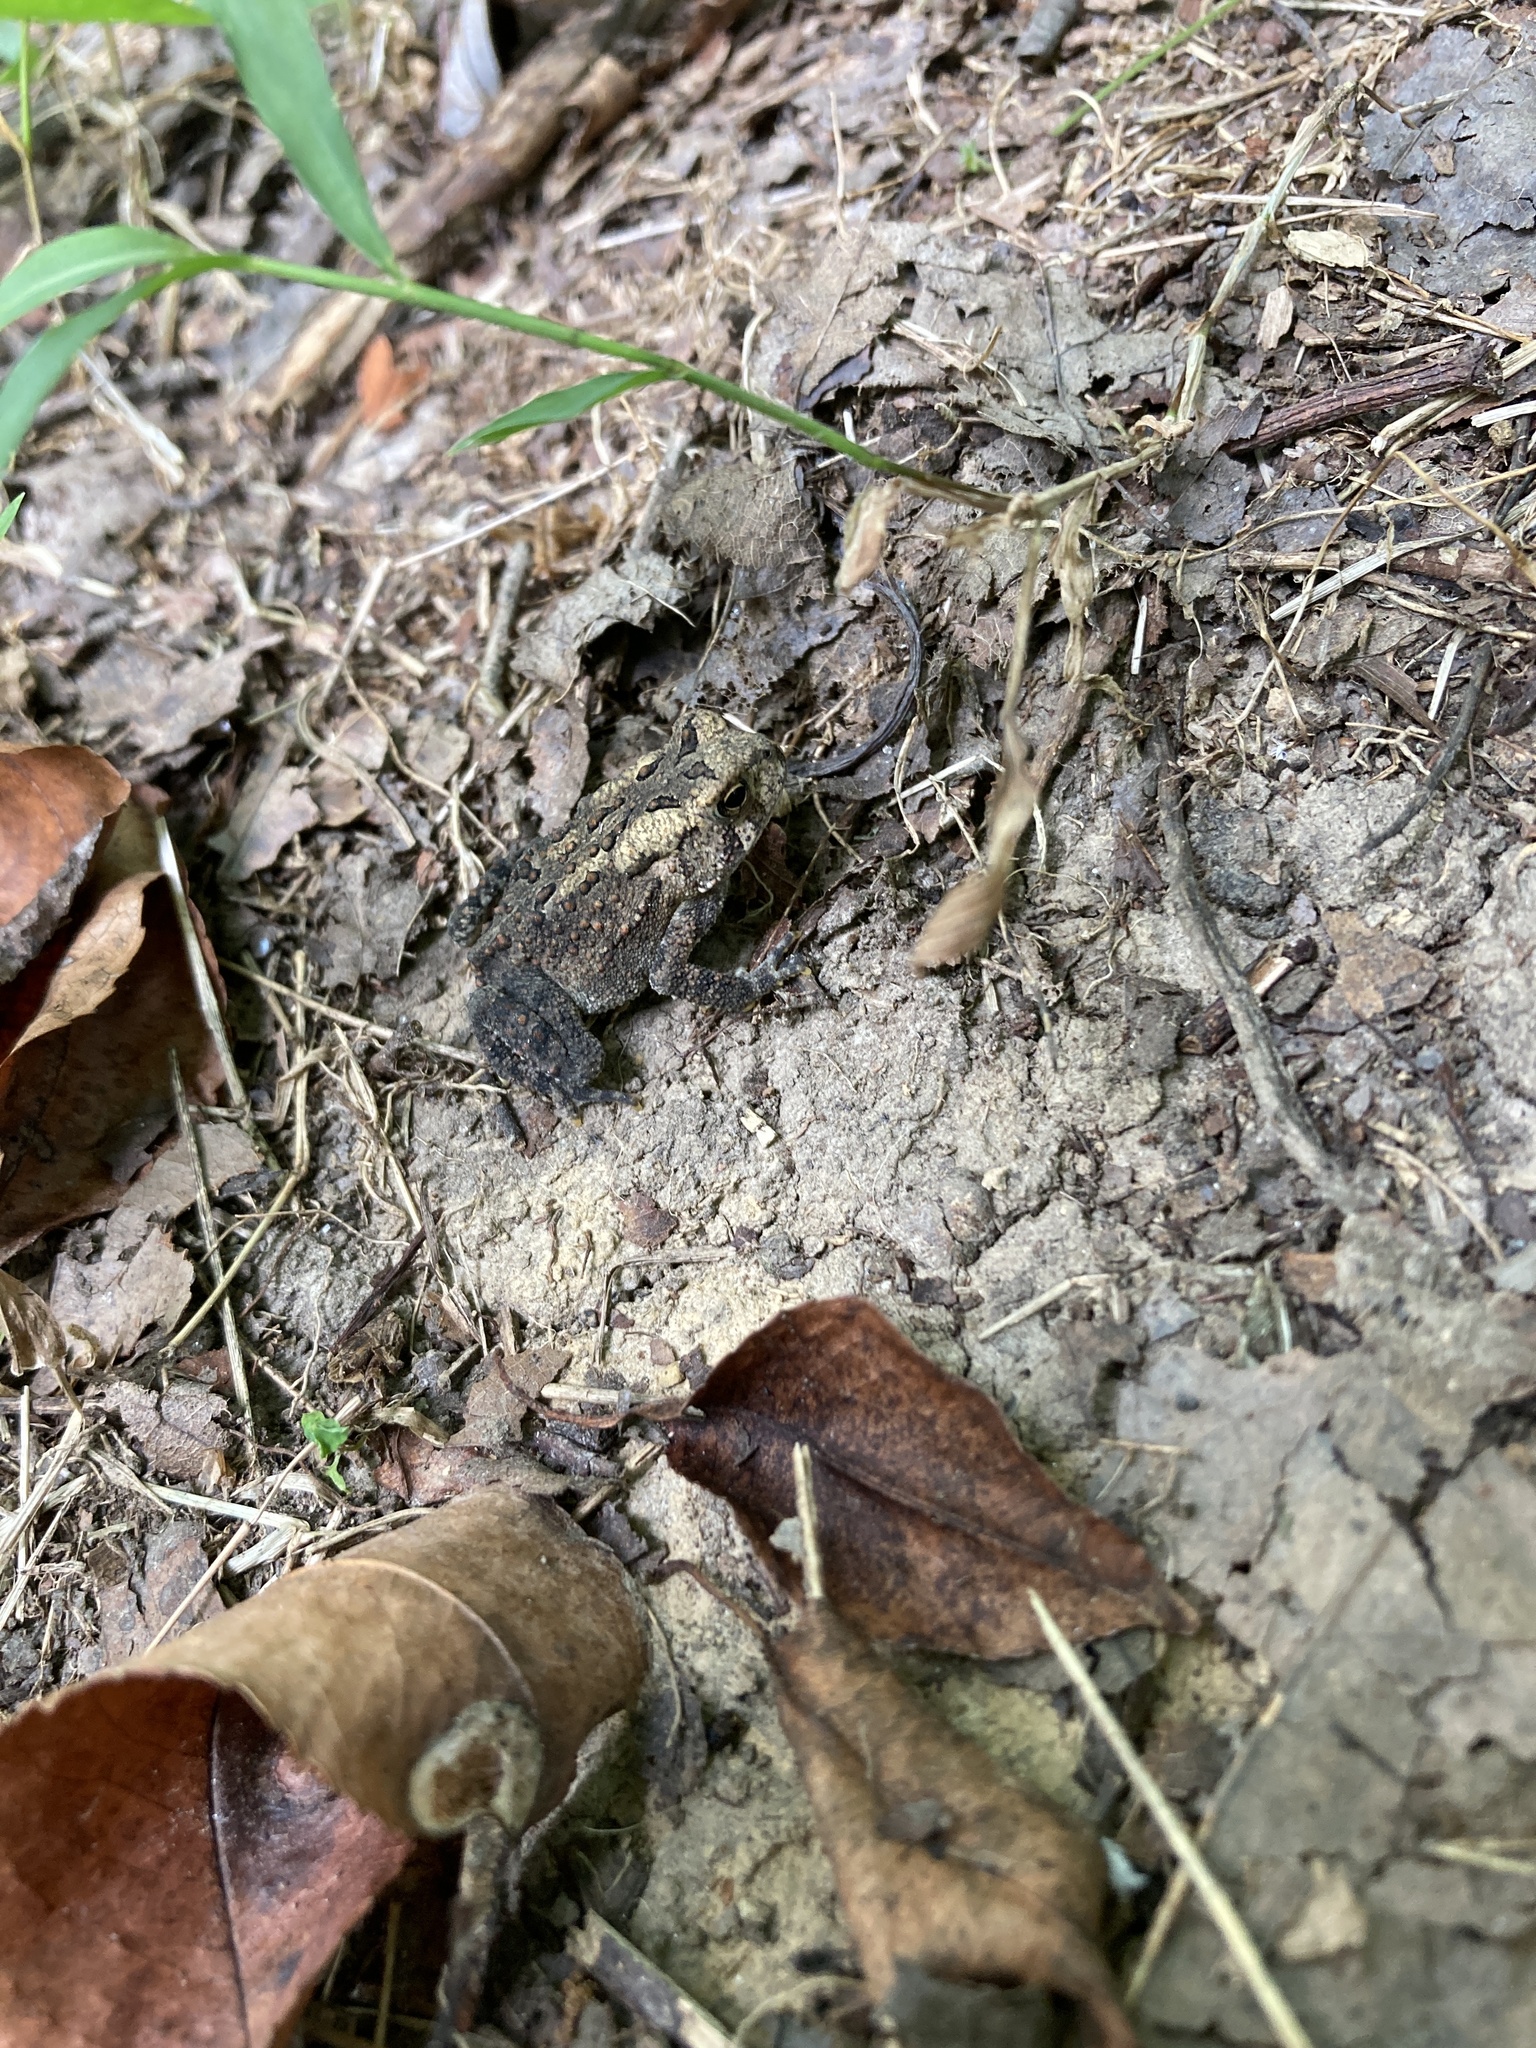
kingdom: Animalia
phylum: Chordata
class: Amphibia
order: Anura
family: Bufonidae
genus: Anaxyrus
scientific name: Anaxyrus americanus
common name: American toad
